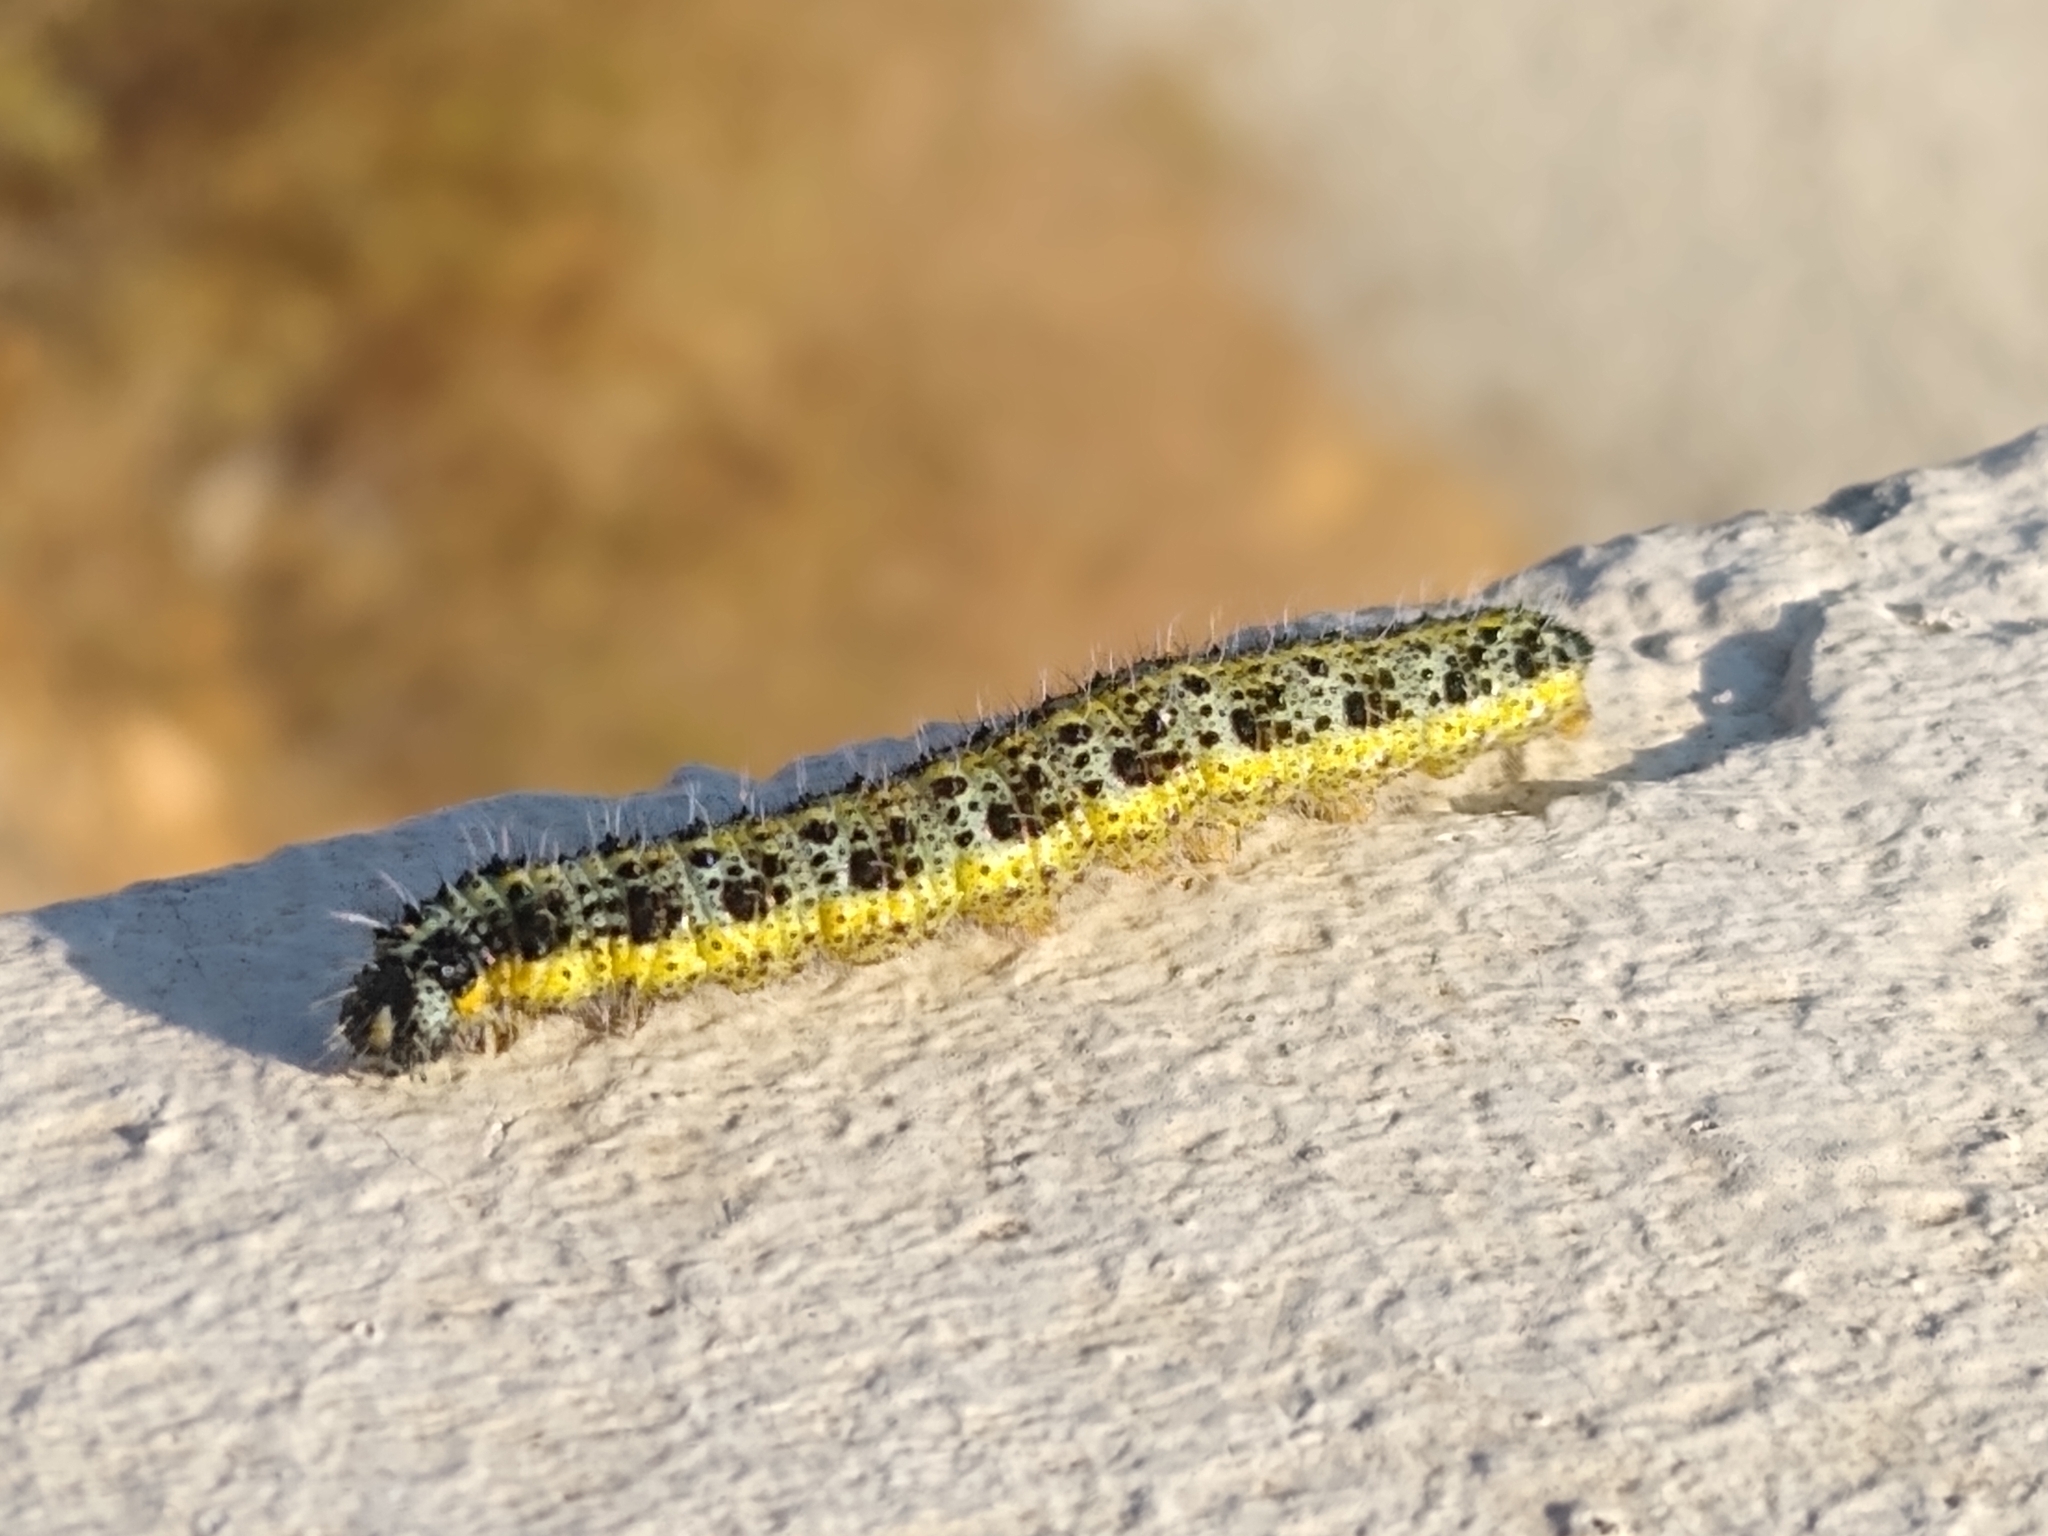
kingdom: Animalia
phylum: Arthropoda
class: Insecta
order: Lepidoptera
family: Pieridae
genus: Pieris
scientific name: Pieris brassicae
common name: Large white
